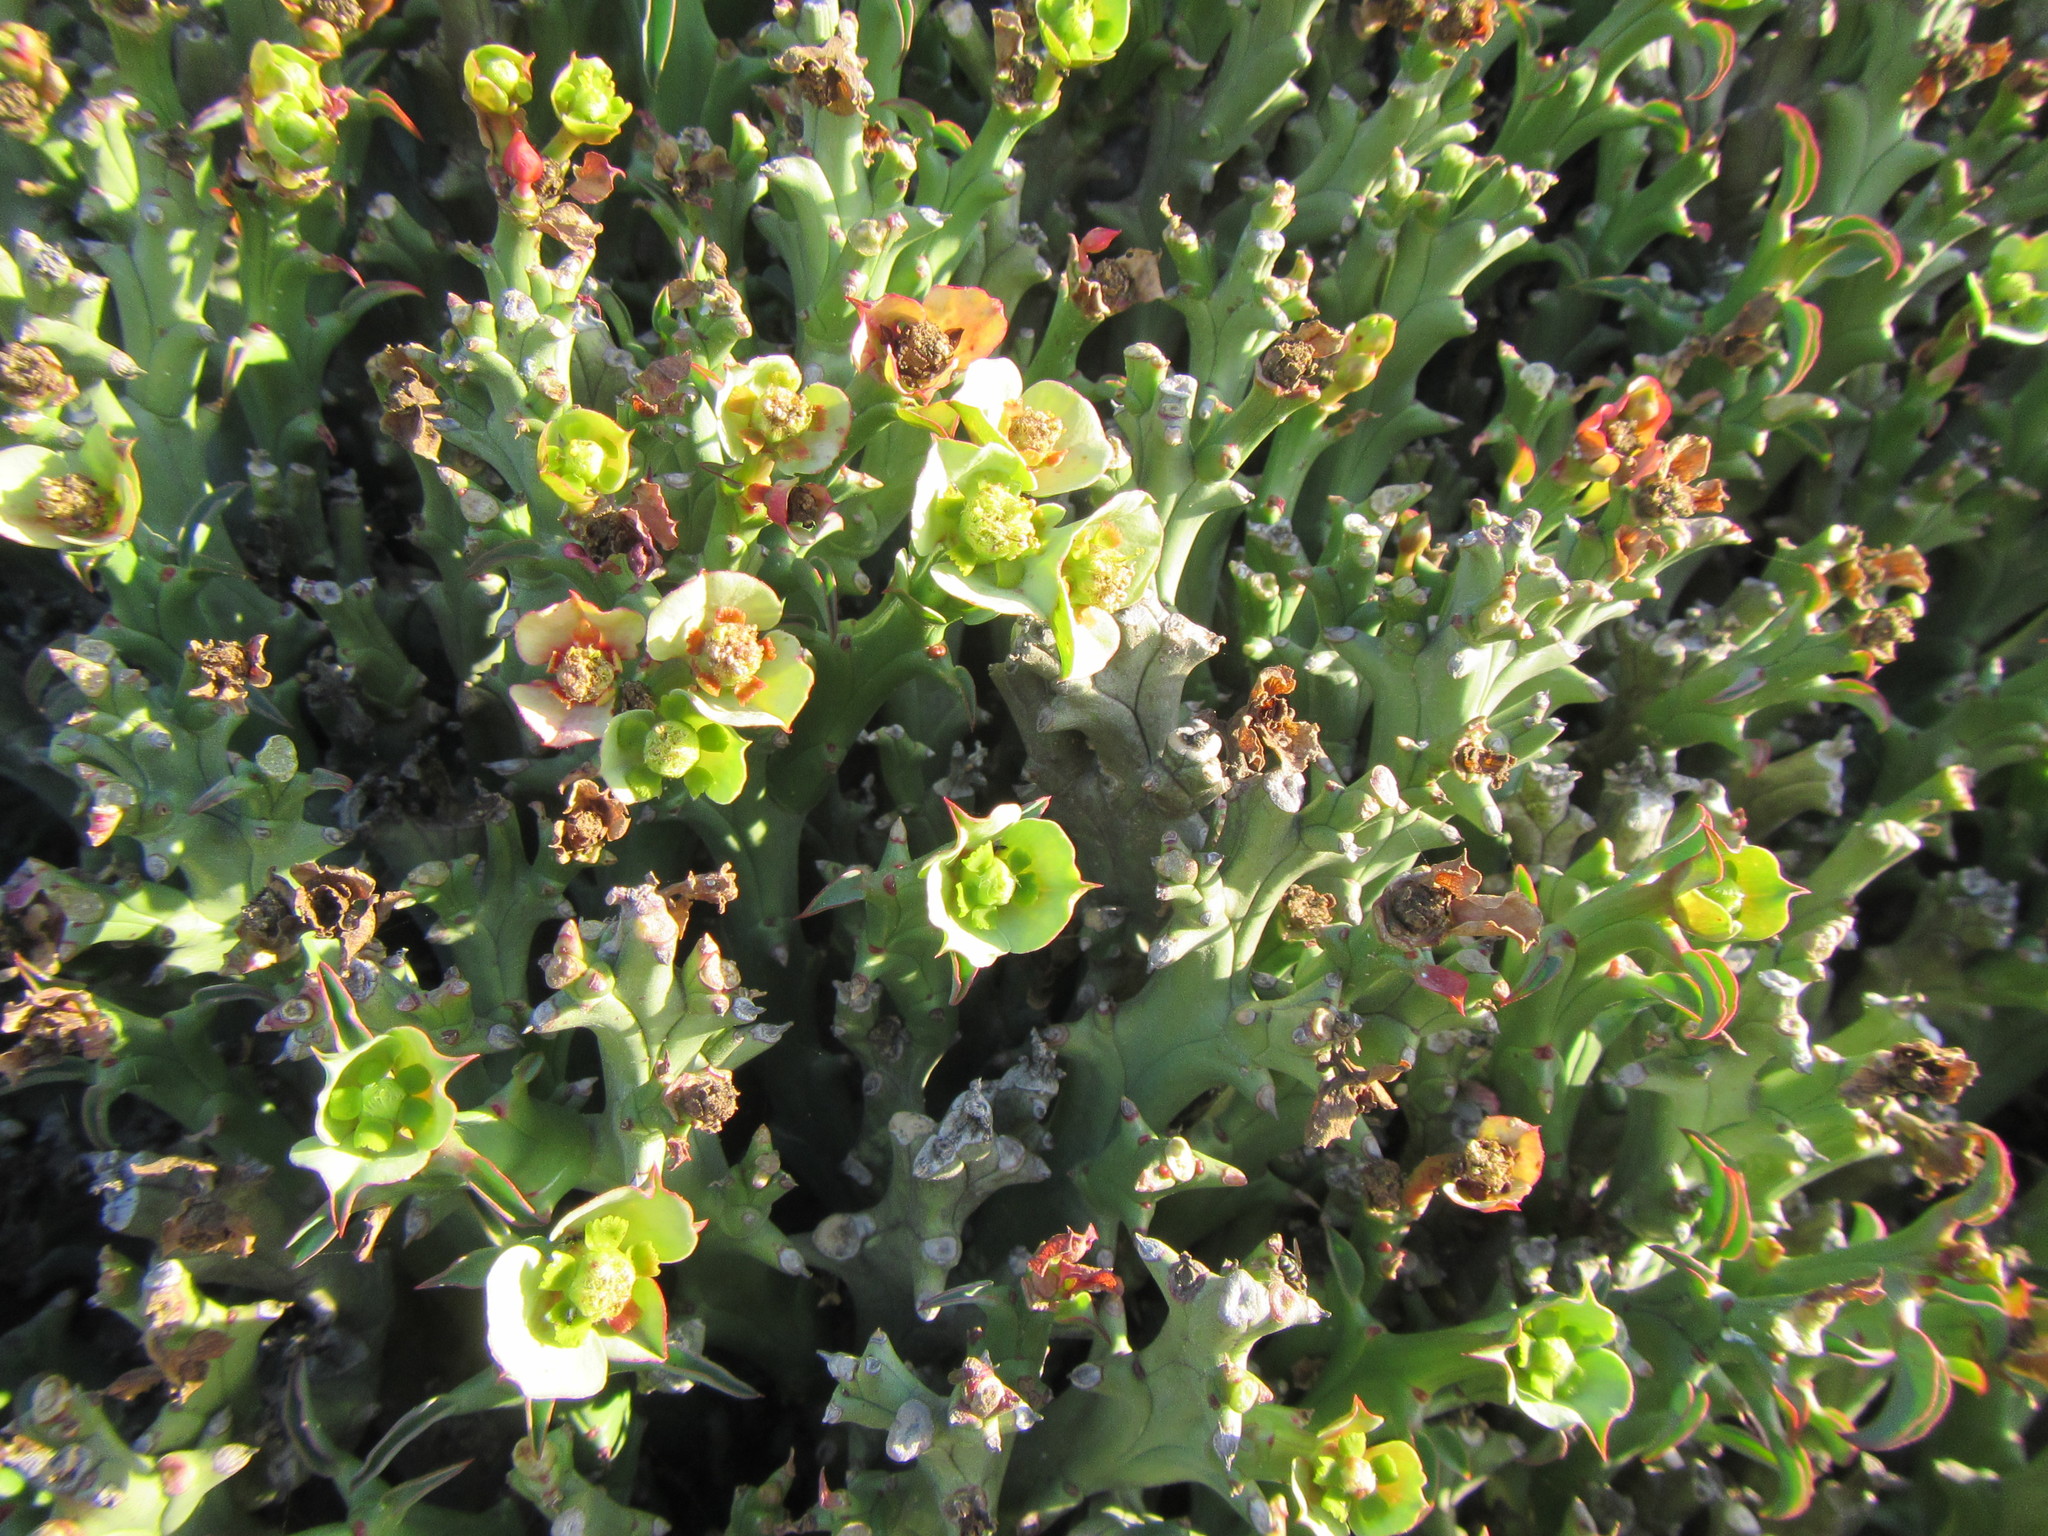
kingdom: Plantae
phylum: Tracheophyta
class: Magnoliopsida
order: Malpighiales
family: Euphorbiaceae
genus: Euphorbia
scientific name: Euphorbia hamata
